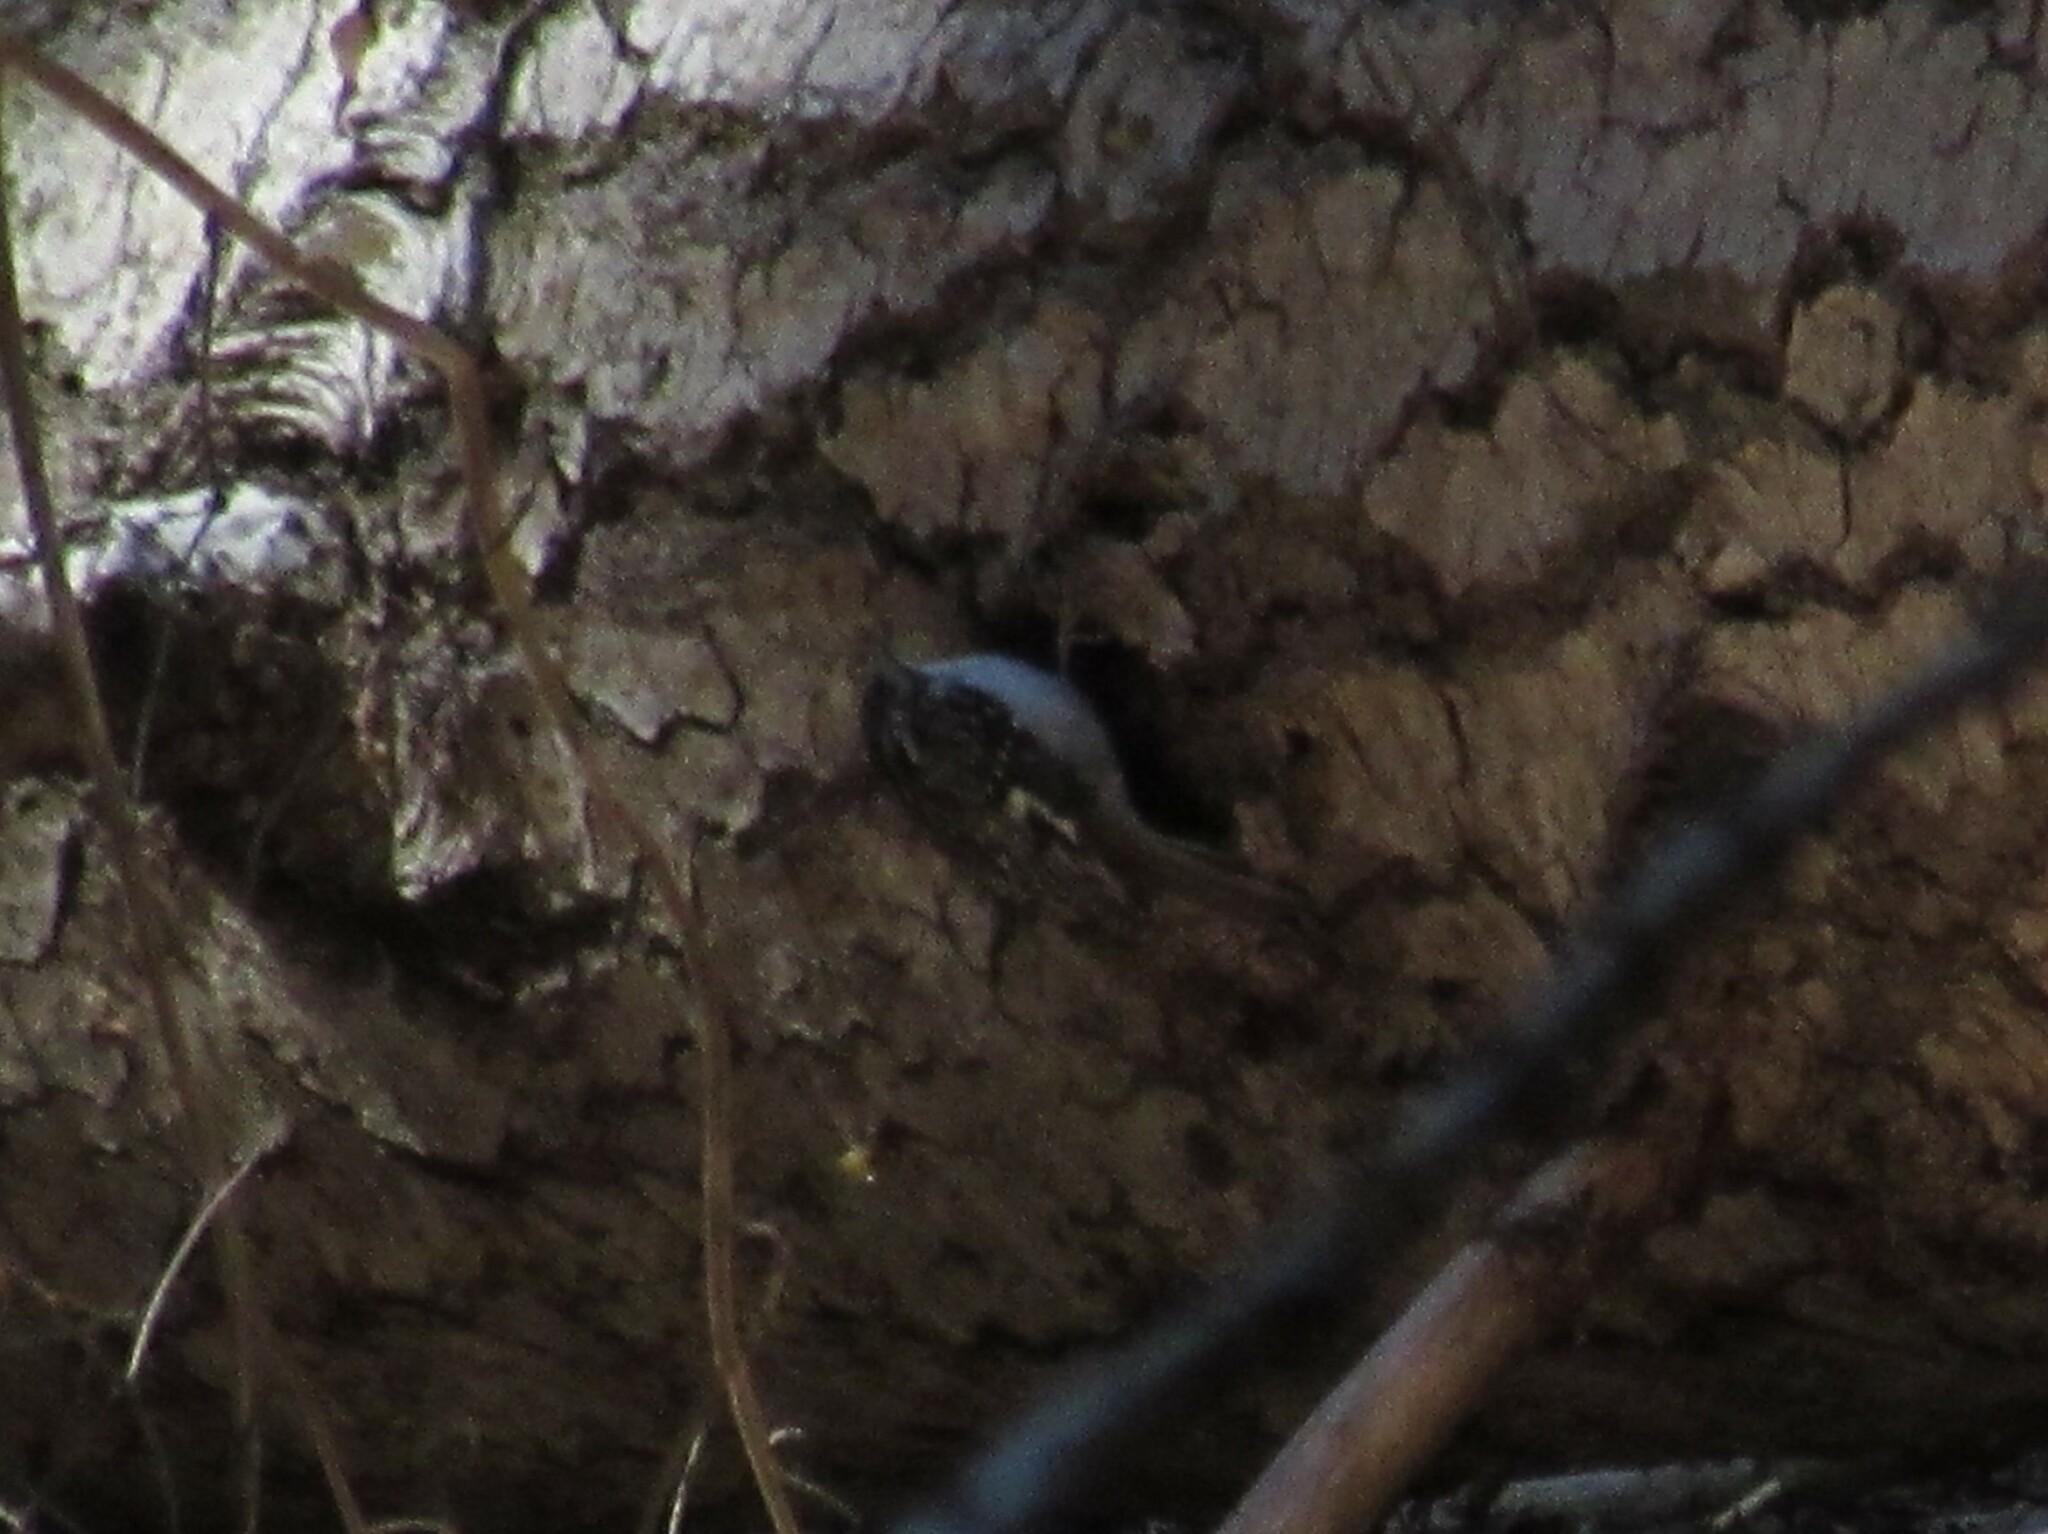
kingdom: Animalia
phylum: Chordata
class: Aves
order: Passeriformes
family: Certhiidae
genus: Certhia
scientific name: Certhia americana
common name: Brown creeper
